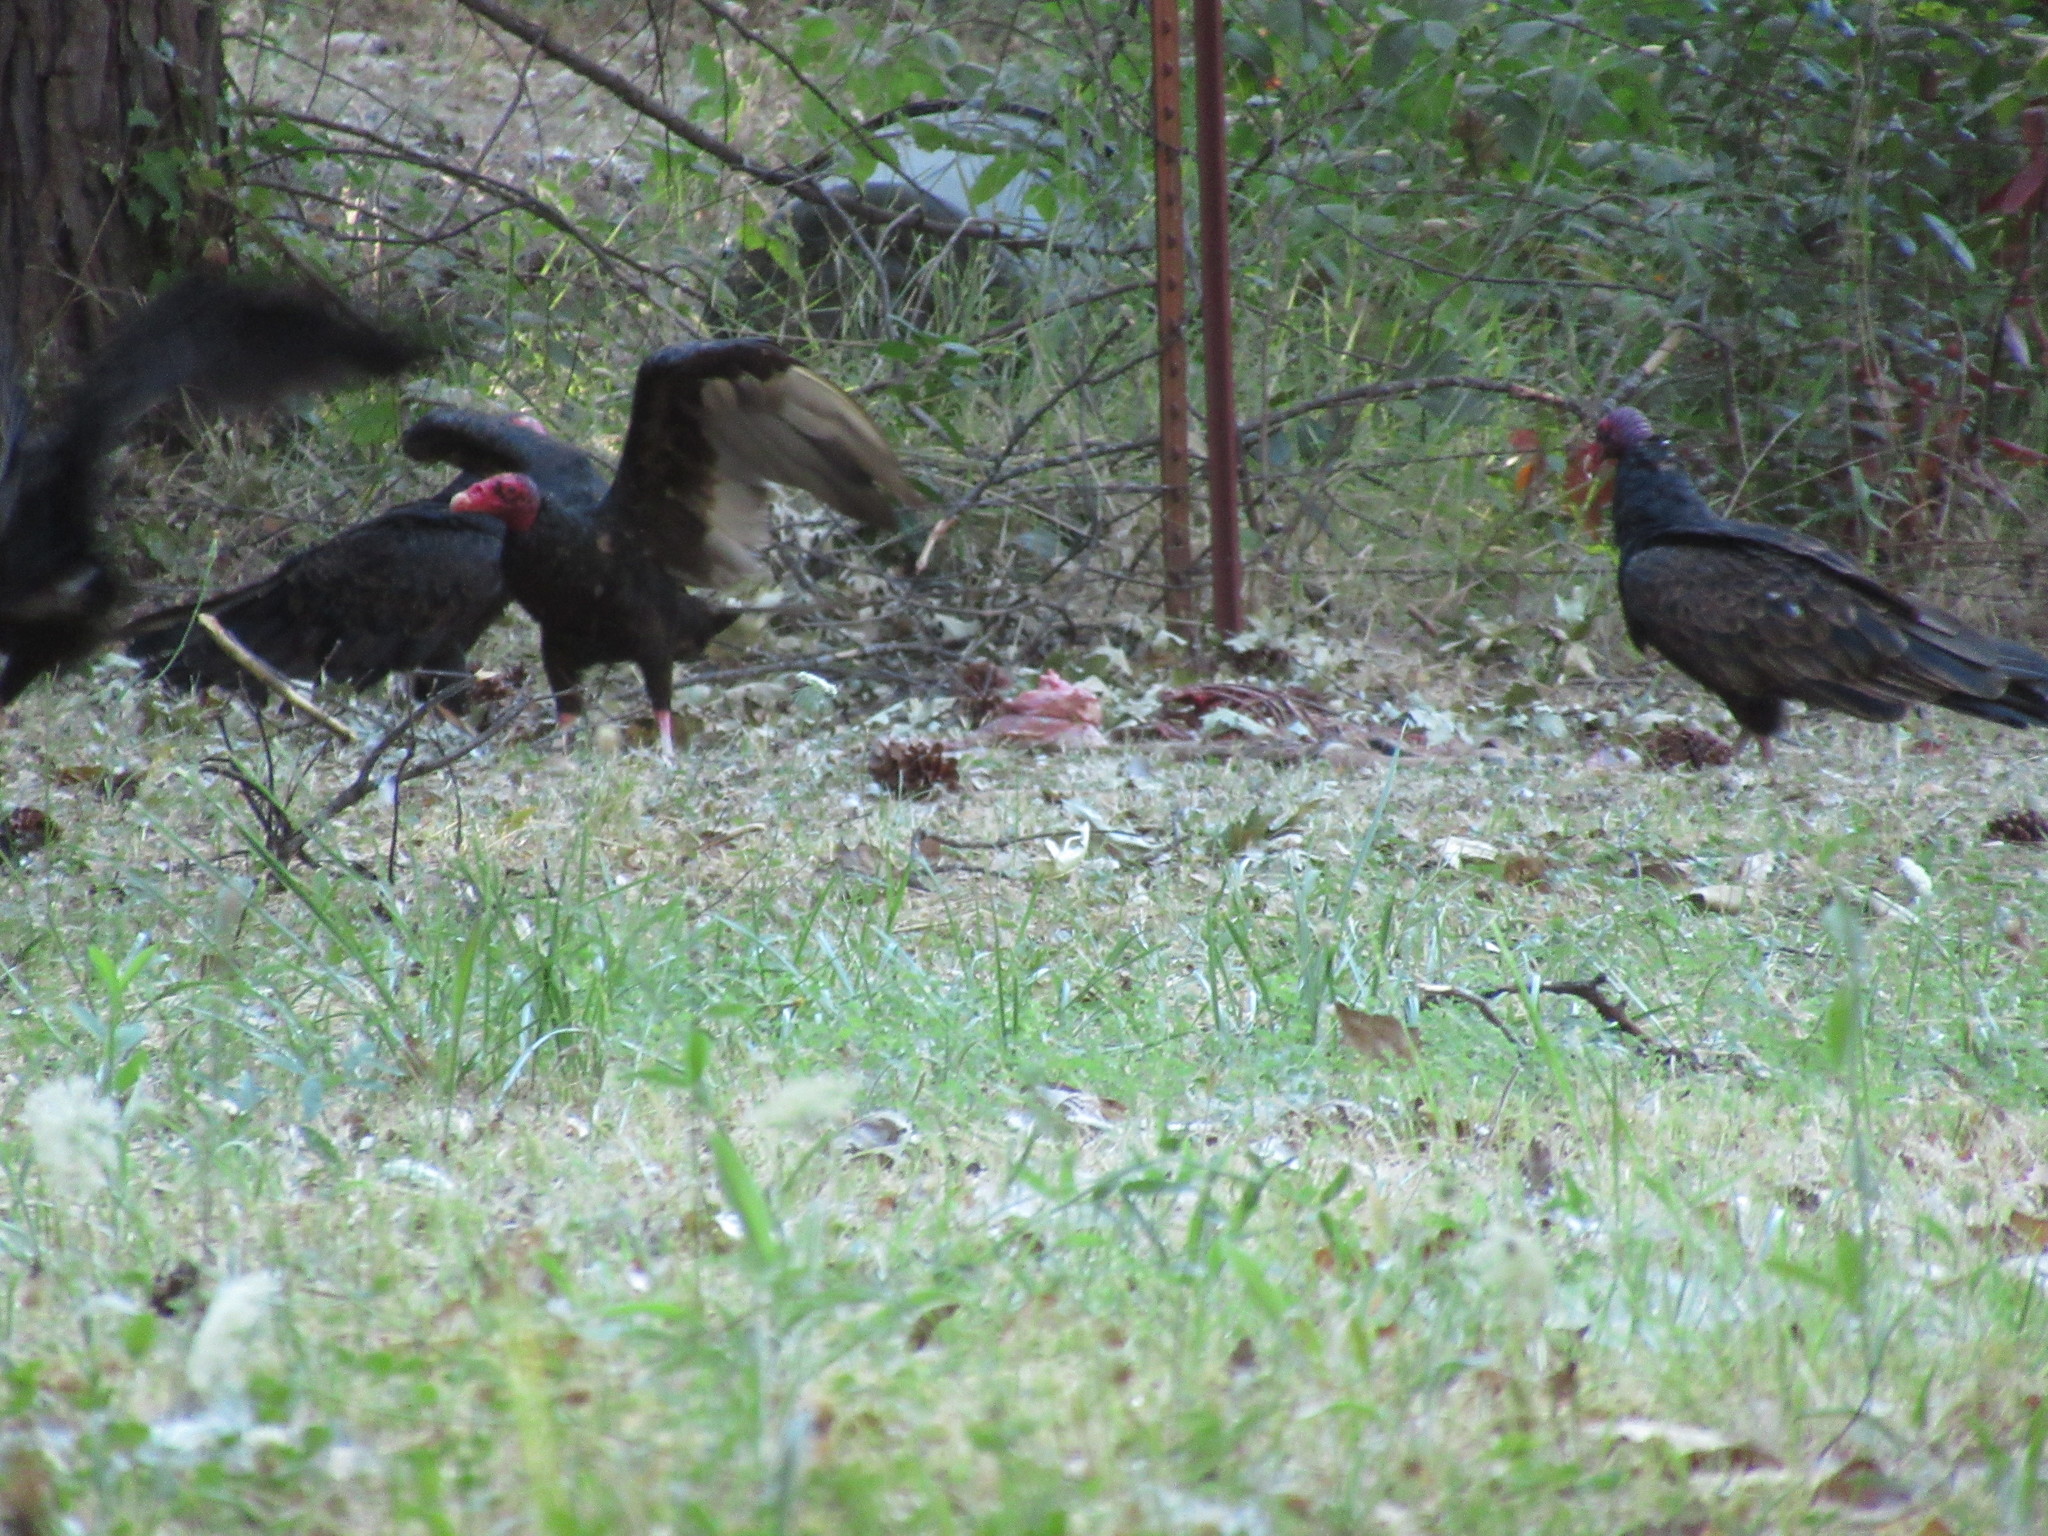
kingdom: Animalia
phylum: Chordata
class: Aves
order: Accipitriformes
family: Cathartidae
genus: Cathartes
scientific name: Cathartes aura
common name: Turkey vulture
